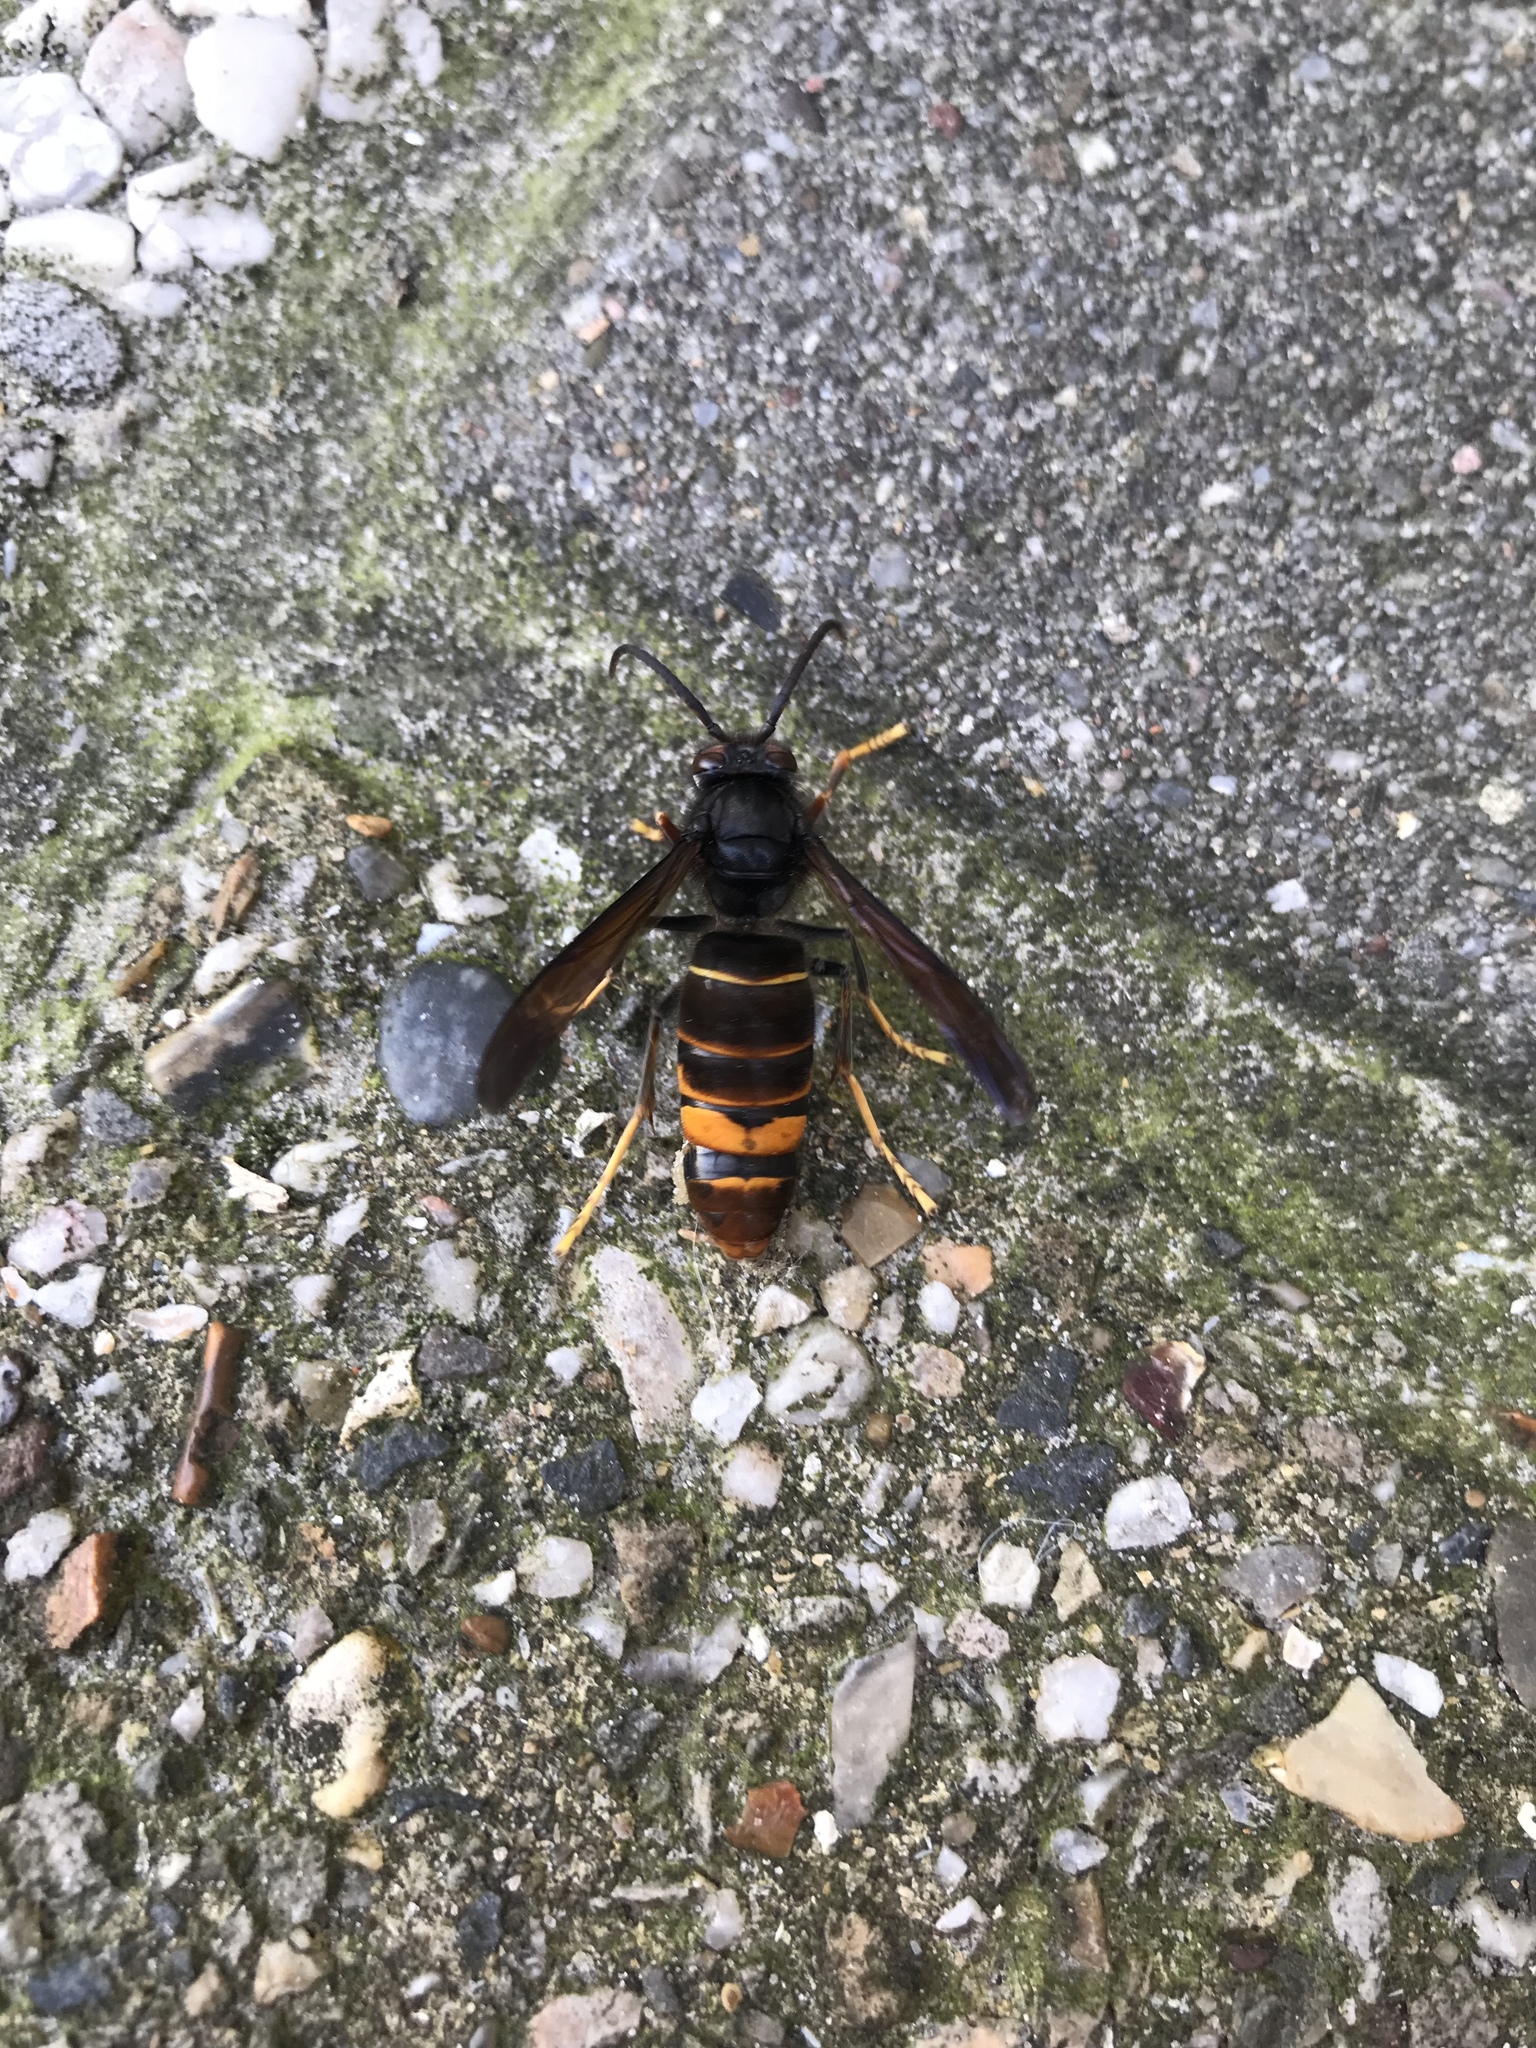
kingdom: Animalia
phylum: Arthropoda
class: Insecta
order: Hymenoptera
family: Vespidae
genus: Vespa
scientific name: Vespa velutina
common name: Asian hornet
